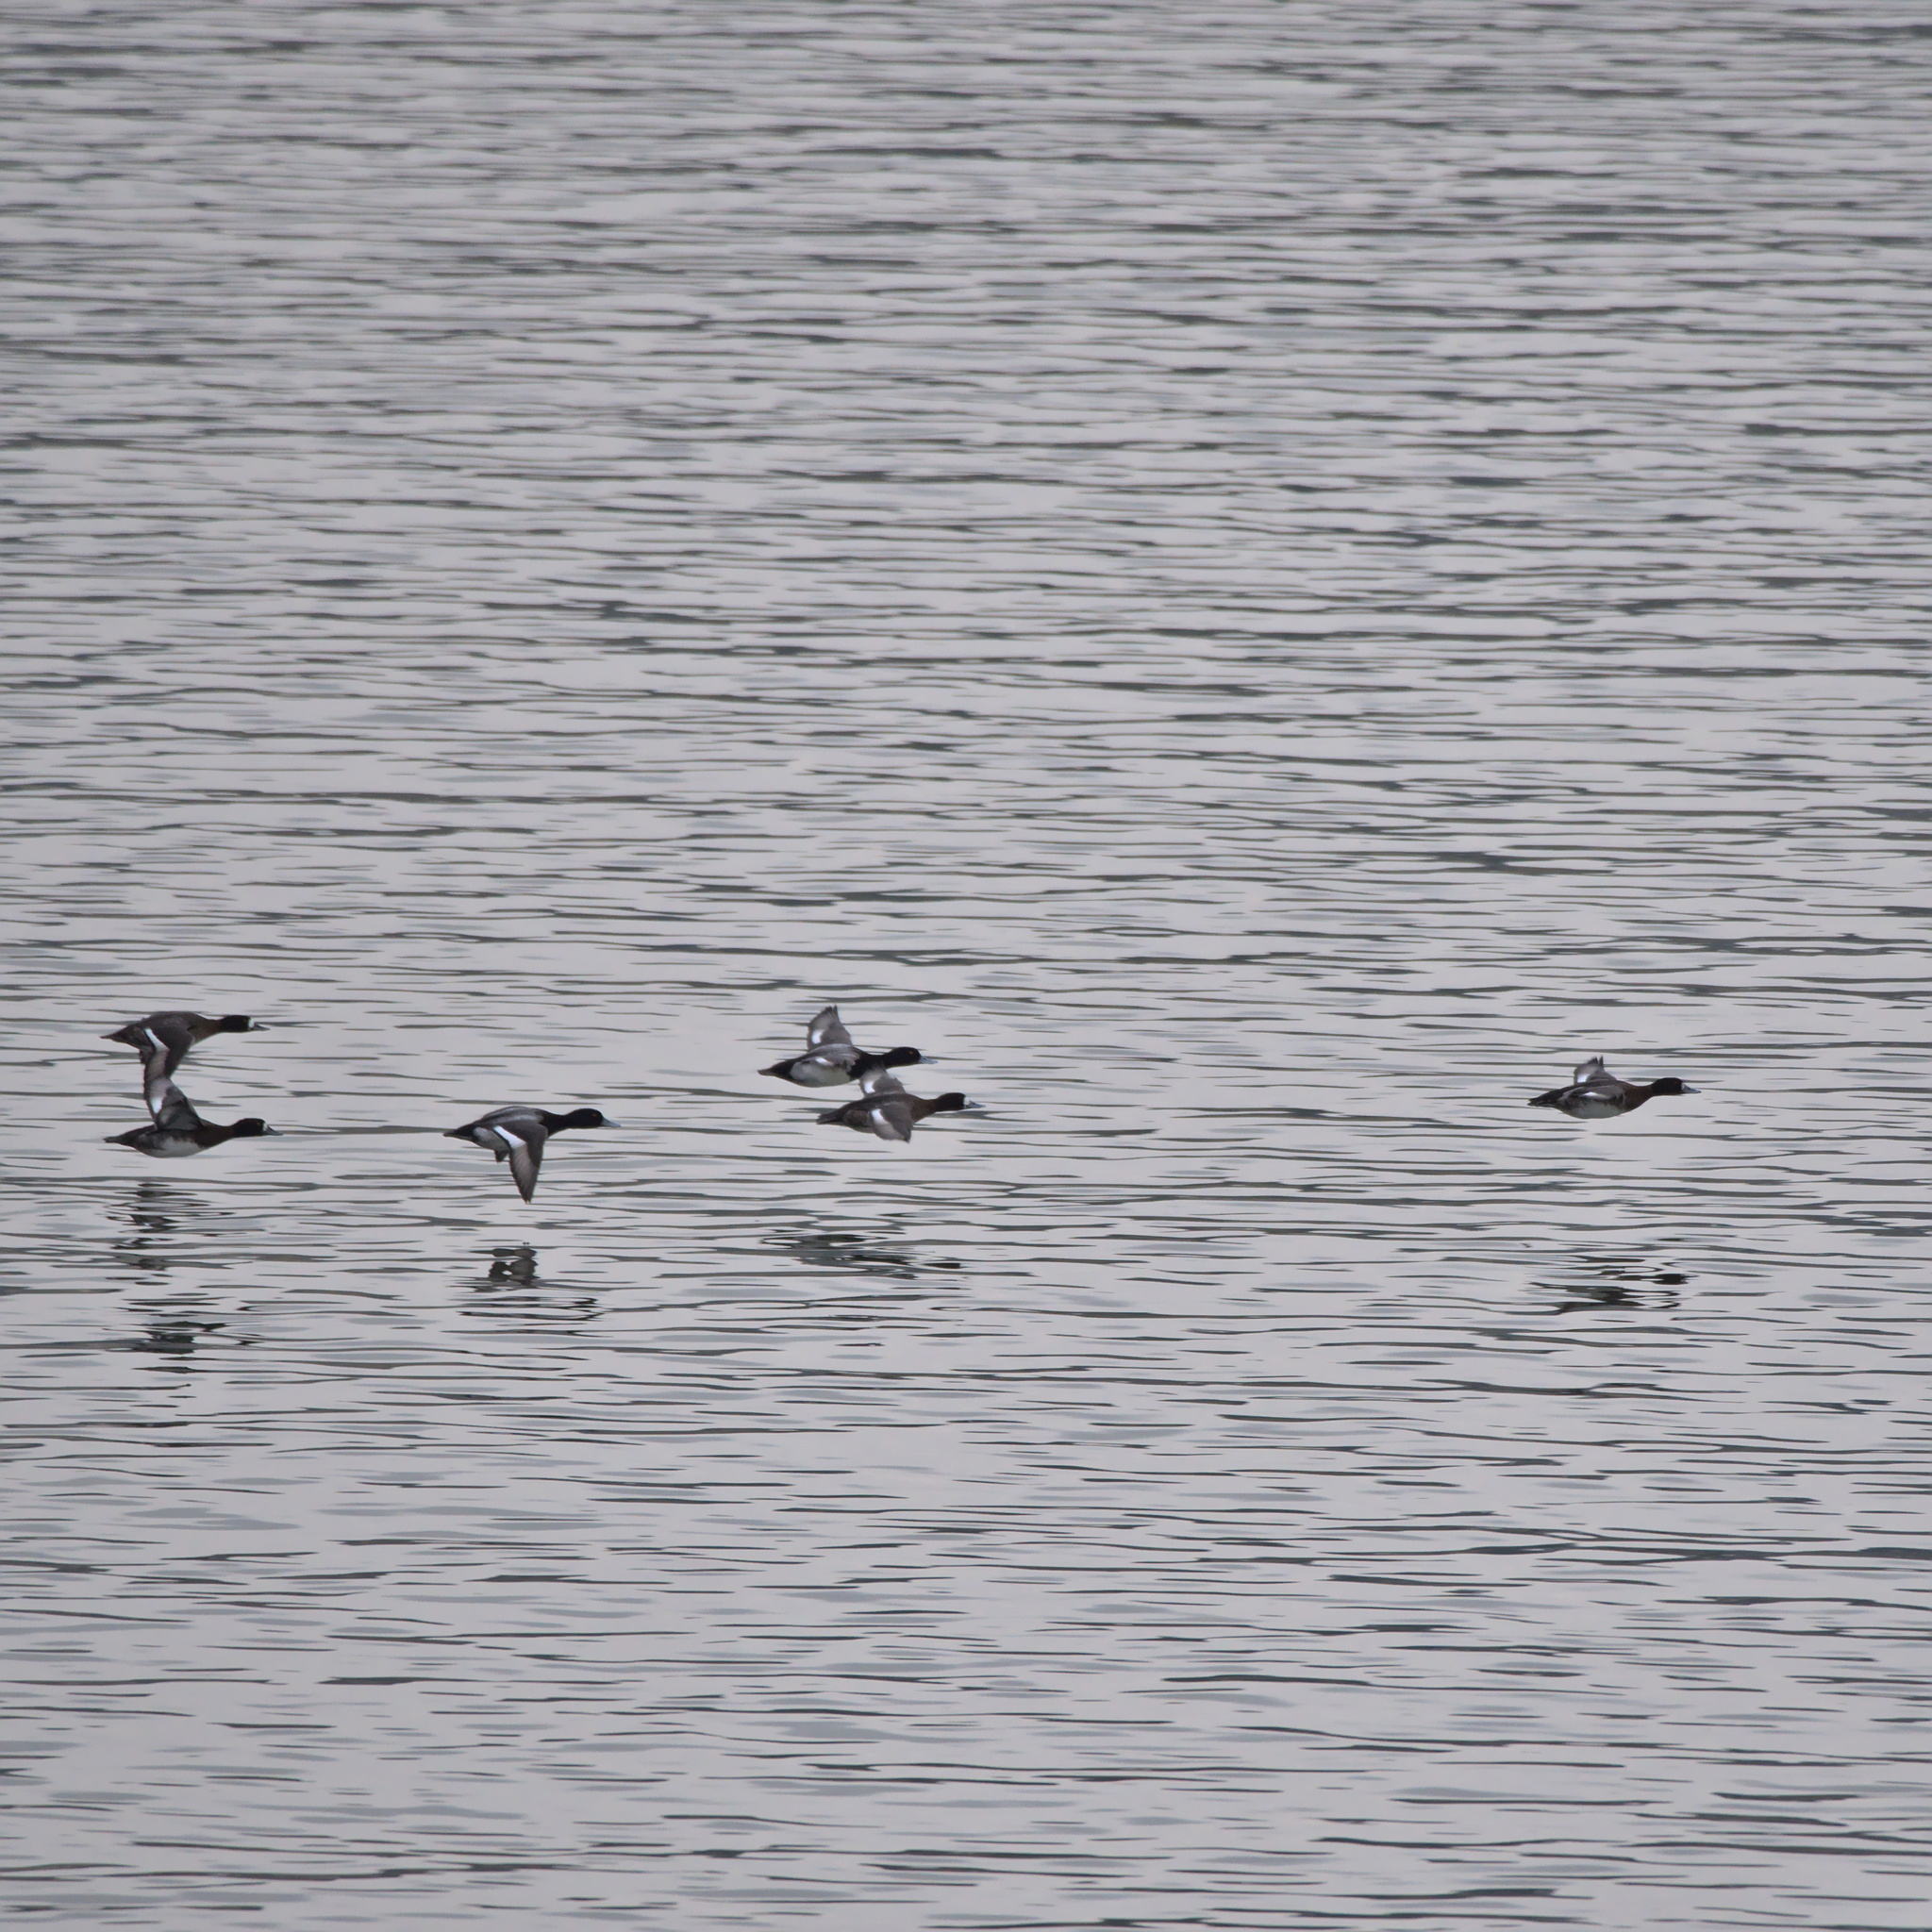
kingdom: Animalia
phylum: Chordata
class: Aves
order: Anseriformes
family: Anatidae
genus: Aythya
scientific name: Aythya affinis
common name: Lesser scaup
